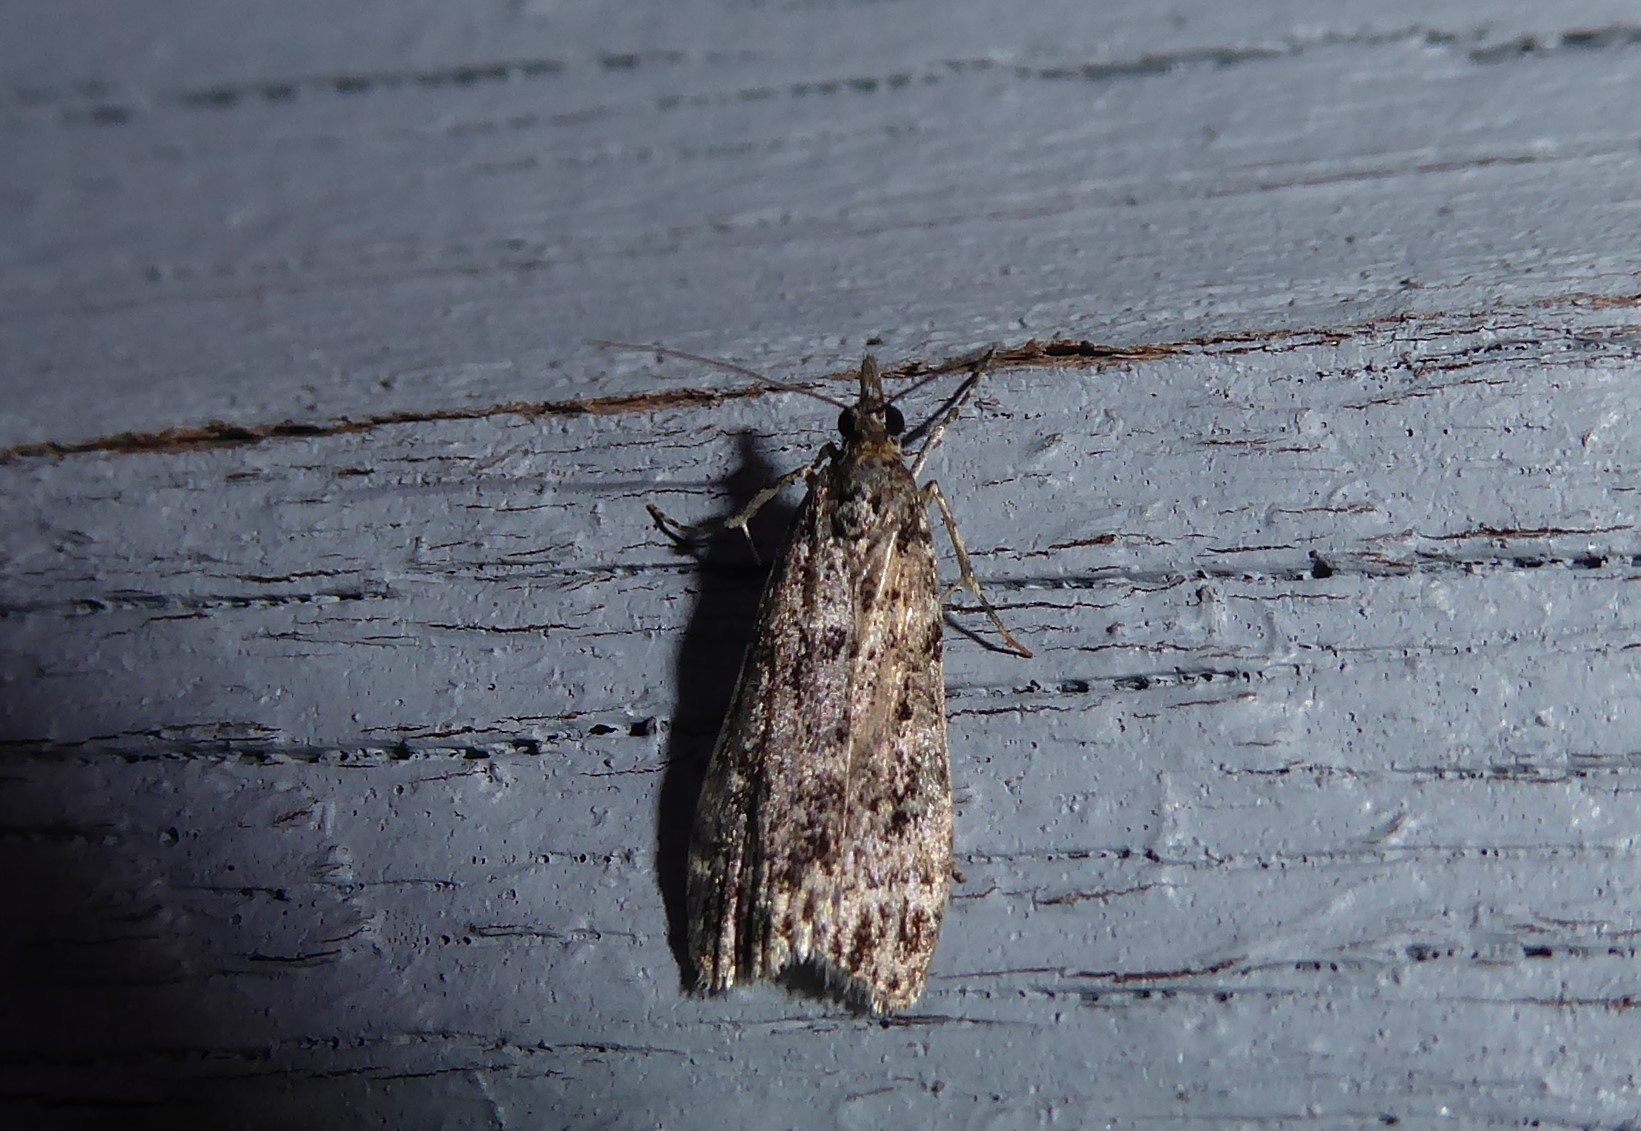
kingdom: Animalia
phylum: Arthropoda
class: Insecta
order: Lepidoptera
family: Crambidae
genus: Eudonia
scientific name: Eudonia philerga
